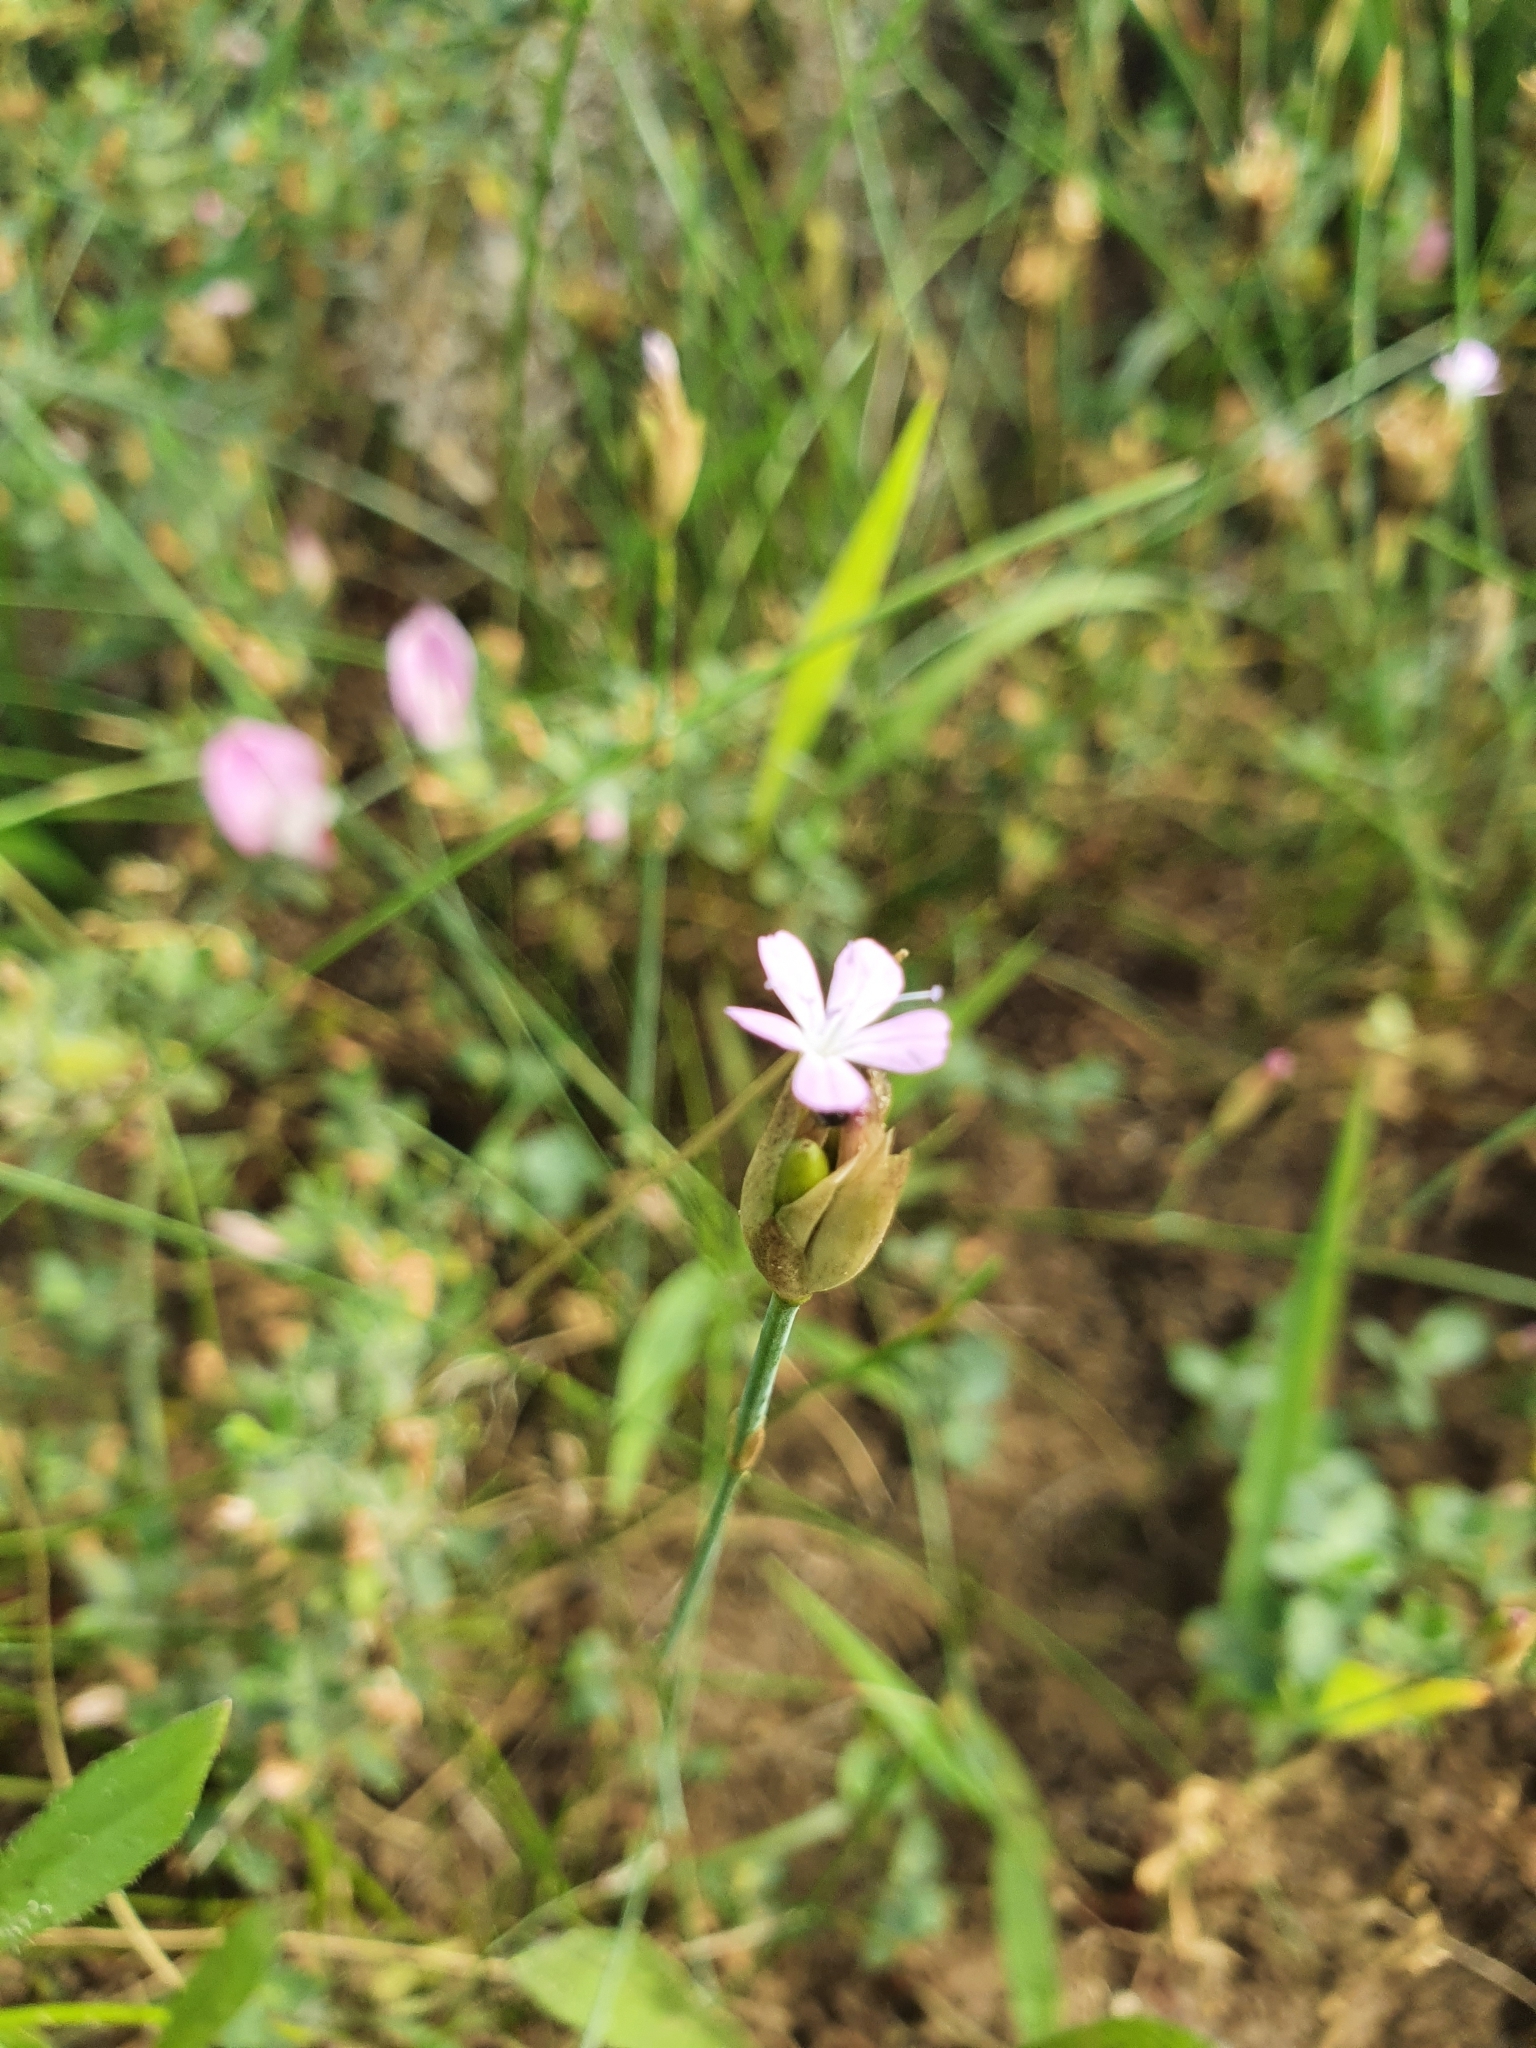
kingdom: Plantae
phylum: Tracheophyta
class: Magnoliopsida
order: Caryophyllales
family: Caryophyllaceae
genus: Petrorhagia
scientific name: Petrorhagia prolifera
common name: Proliferous pink
